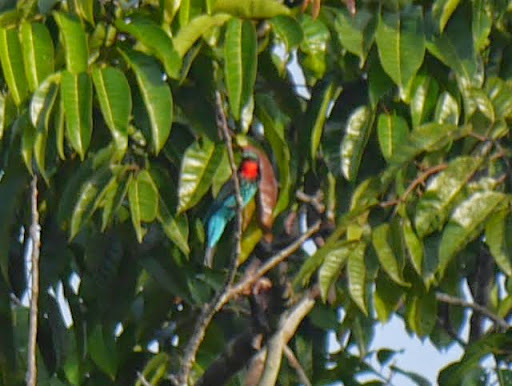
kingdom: Animalia
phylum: Chordata
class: Aves
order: Coraciiformes
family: Meropidae
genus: Merops
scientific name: Merops gularis
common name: Black bee-eater
